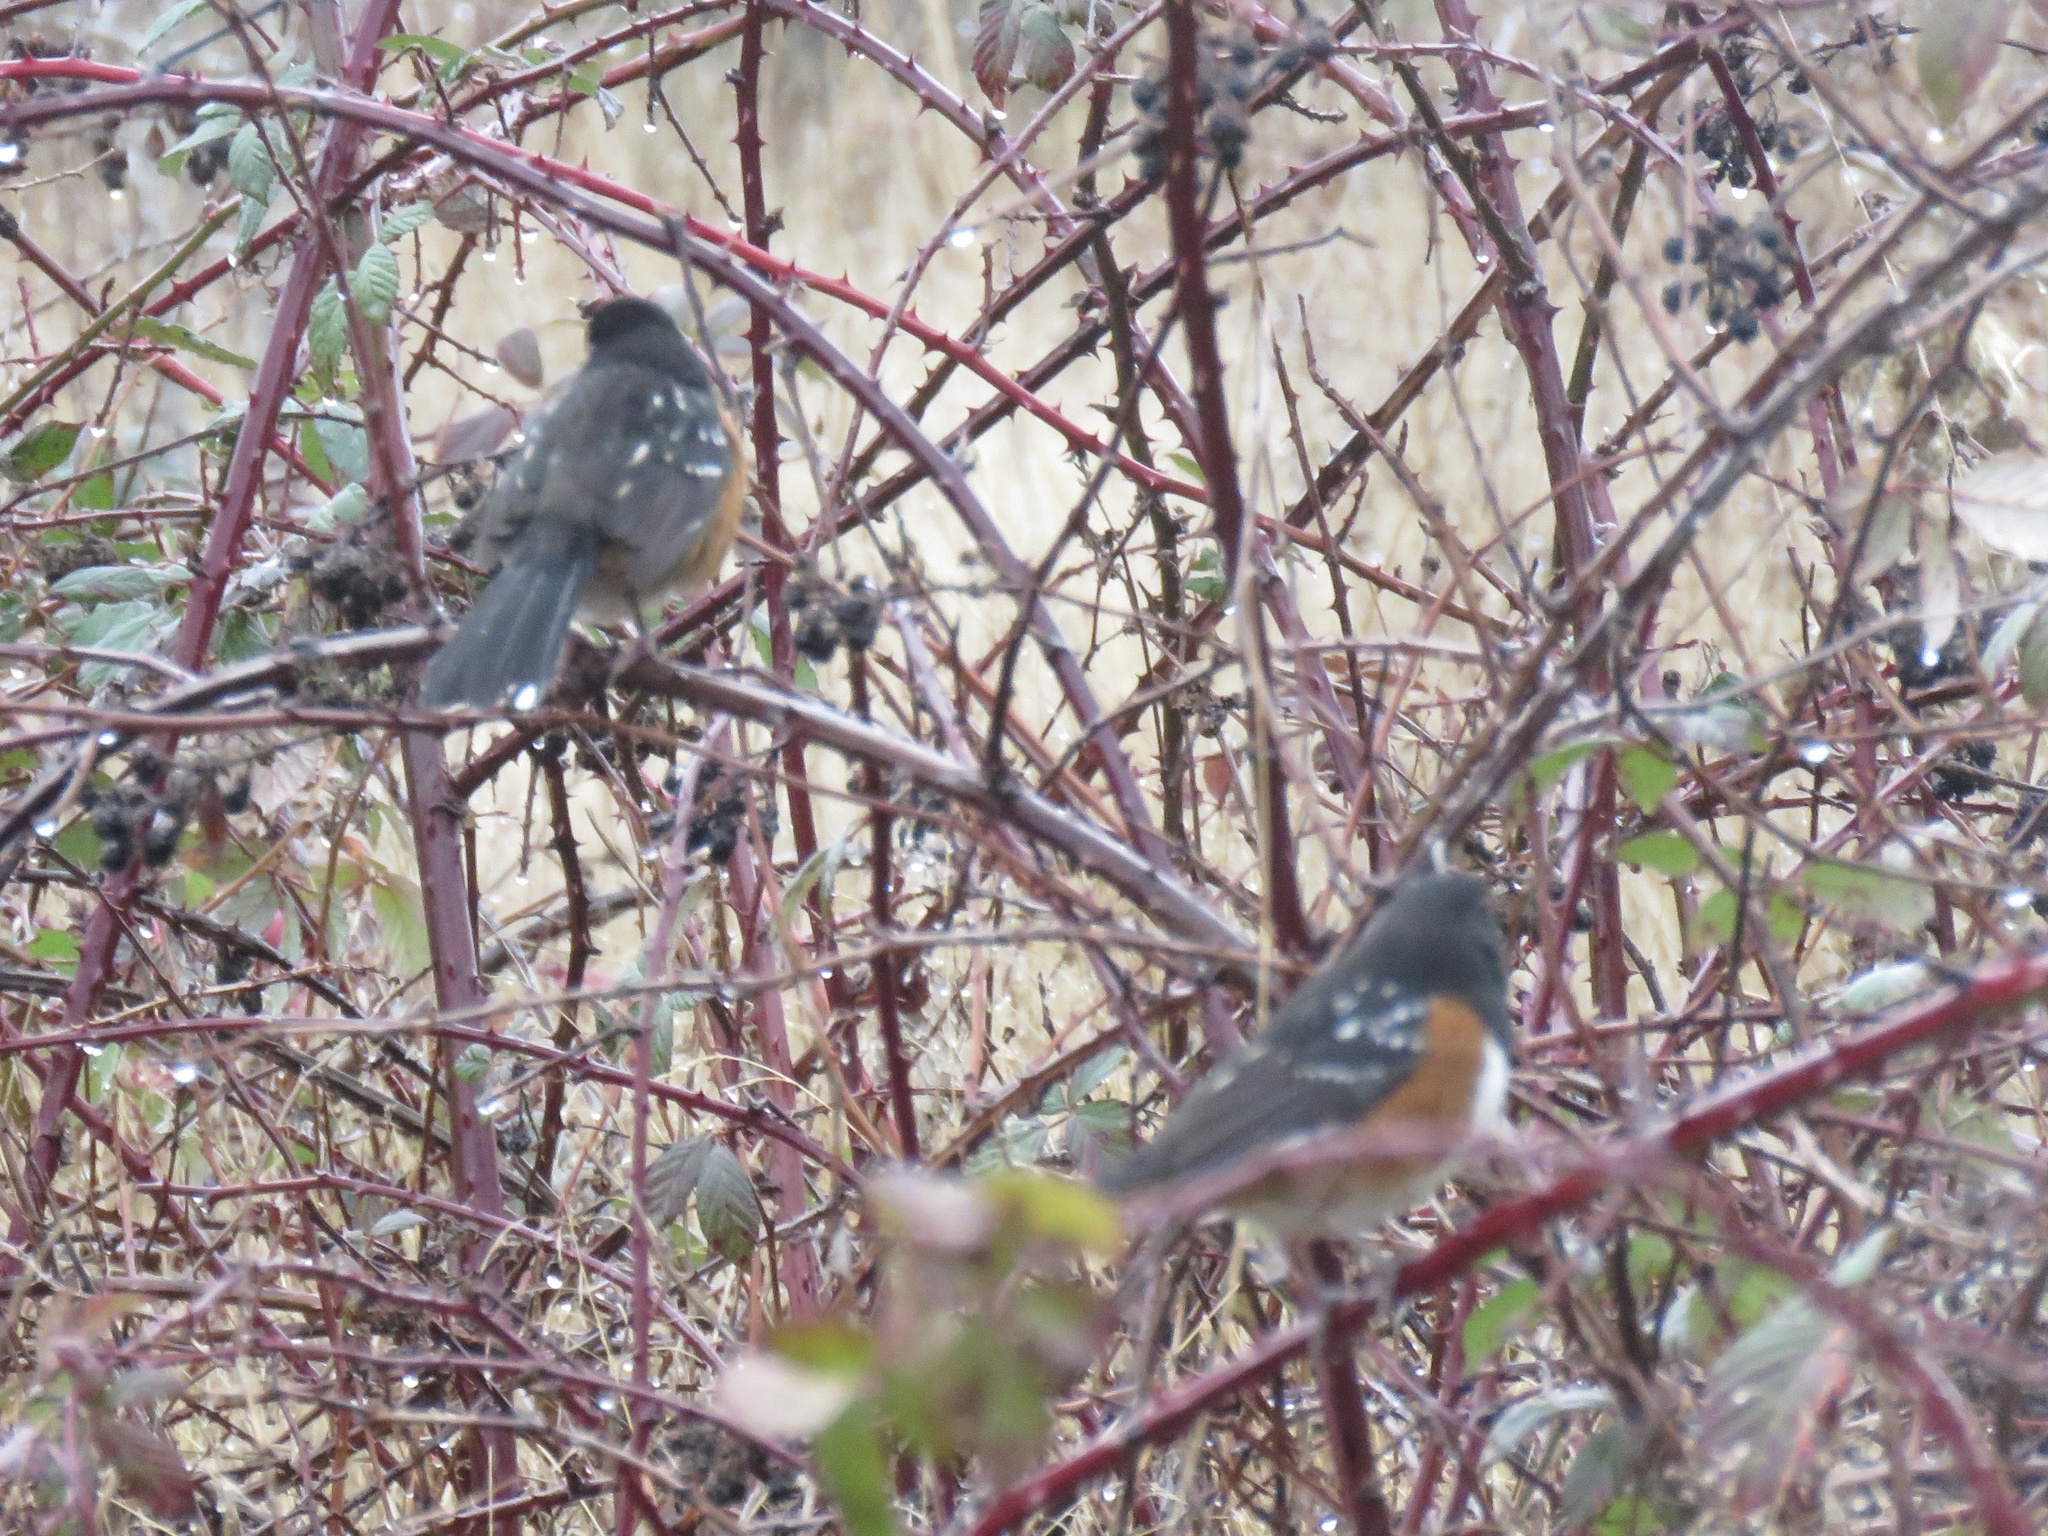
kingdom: Animalia
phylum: Chordata
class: Aves
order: Passeriformes
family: Passerellidae
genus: Pipilo
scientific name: Pipilo maculatus
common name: Spotted towhee
